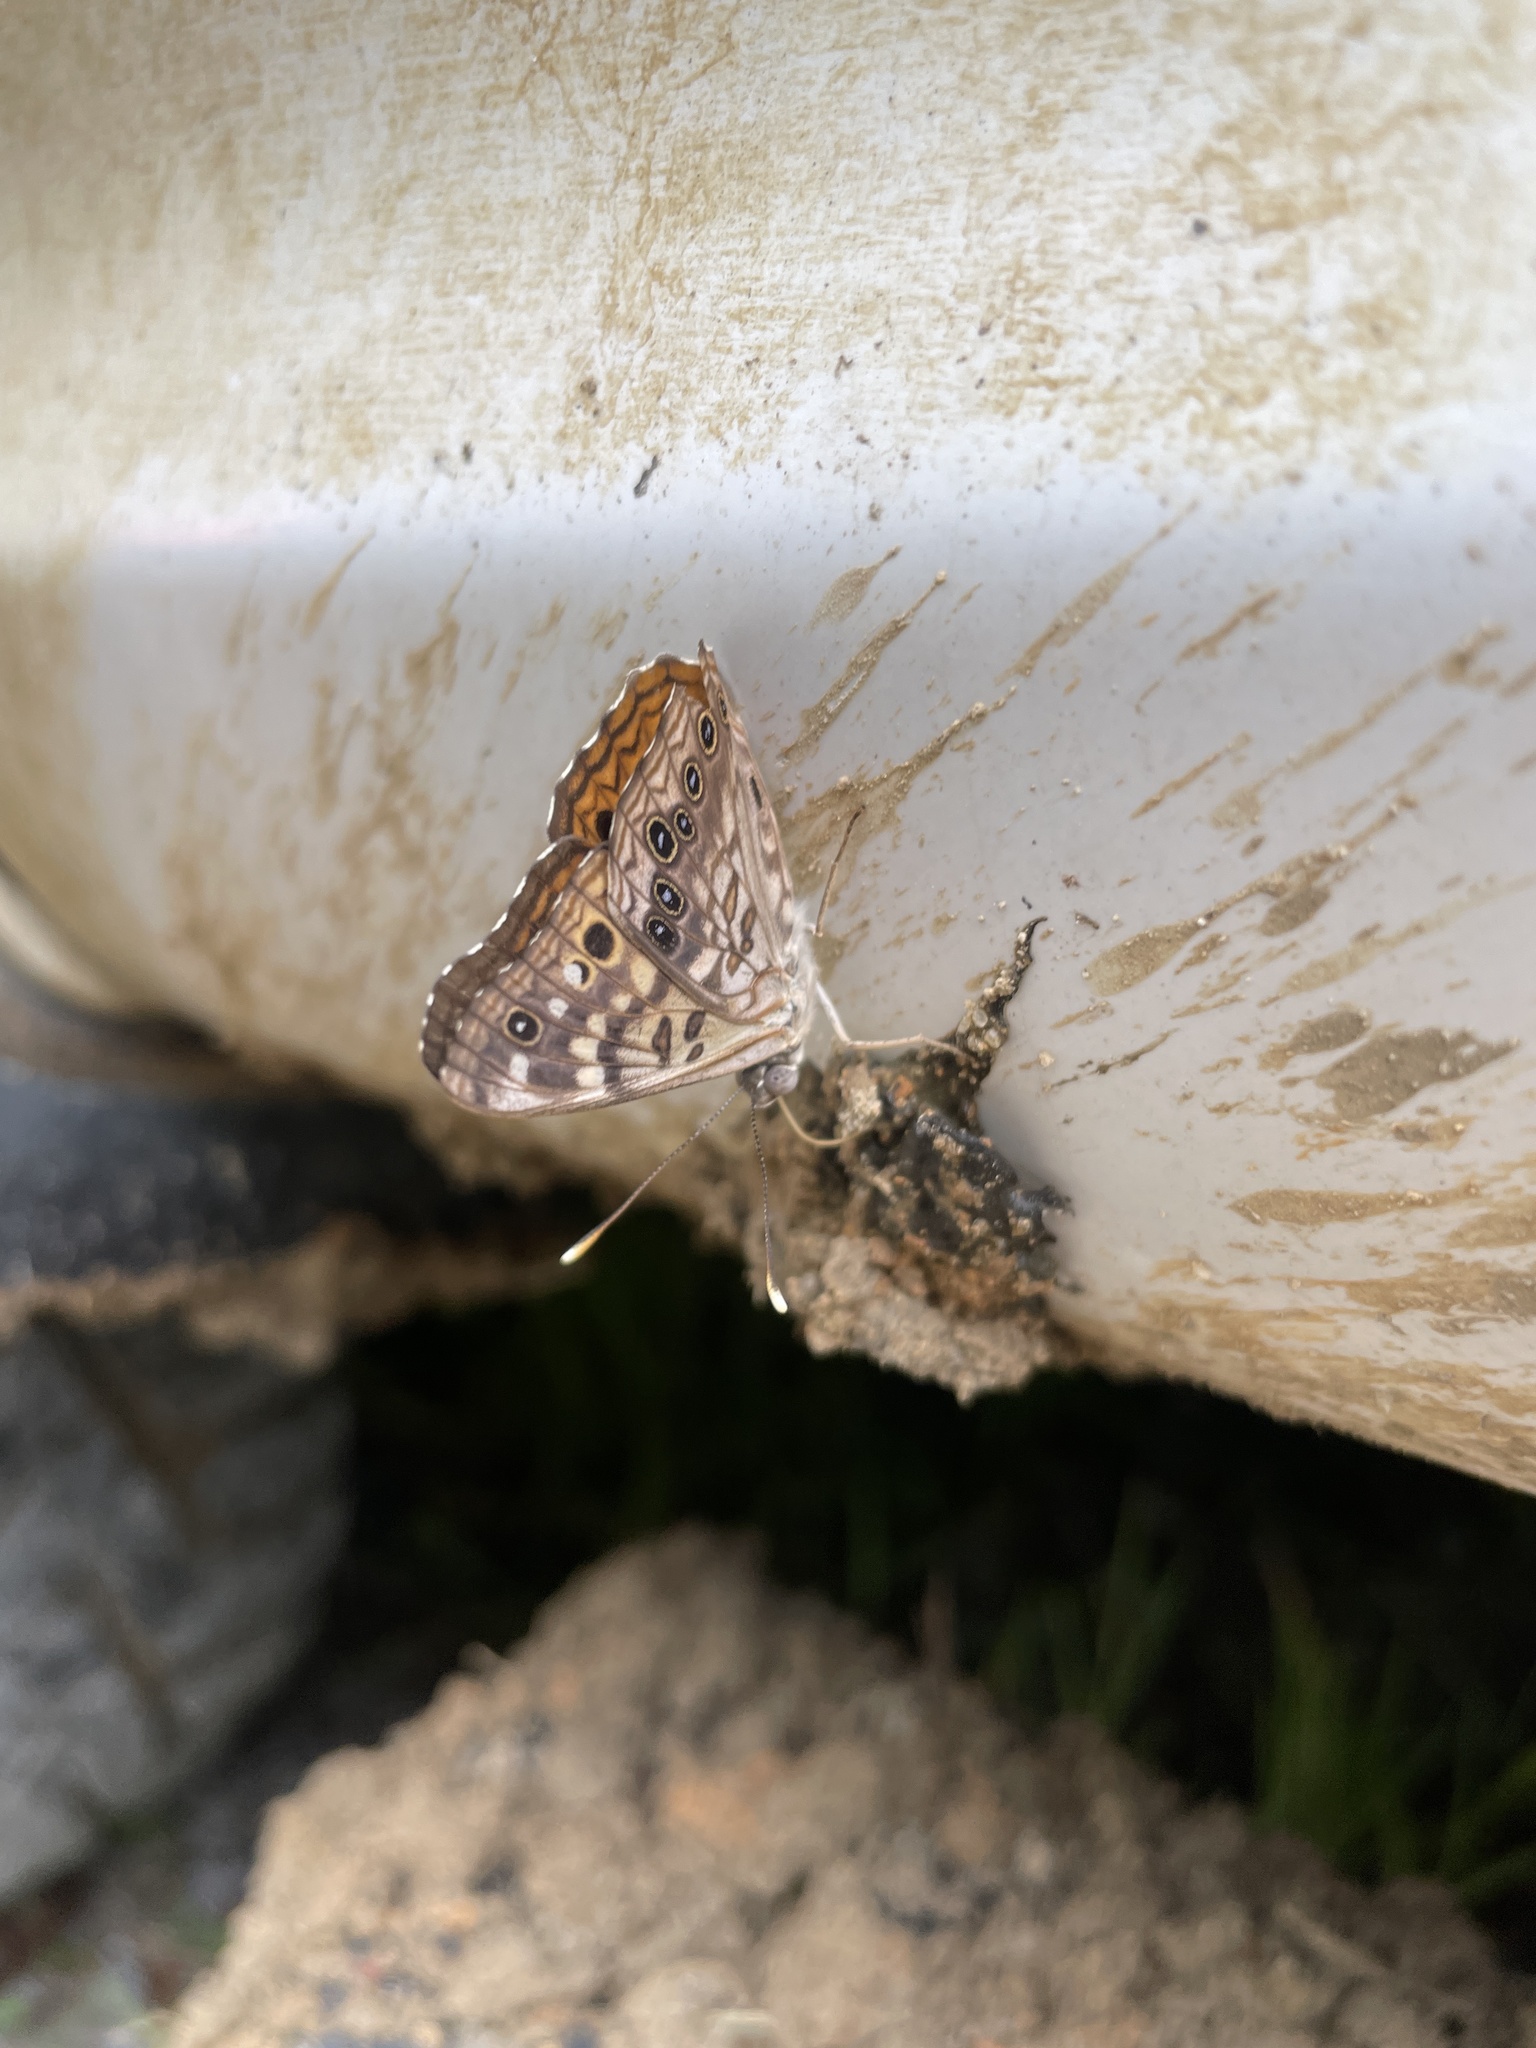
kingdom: Animalia
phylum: Arthropoda
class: Insecta
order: Lepidoptera
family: Nymphalidae
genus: Asterocampa
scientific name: Asterocampa celtis
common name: Hackberry emperor
